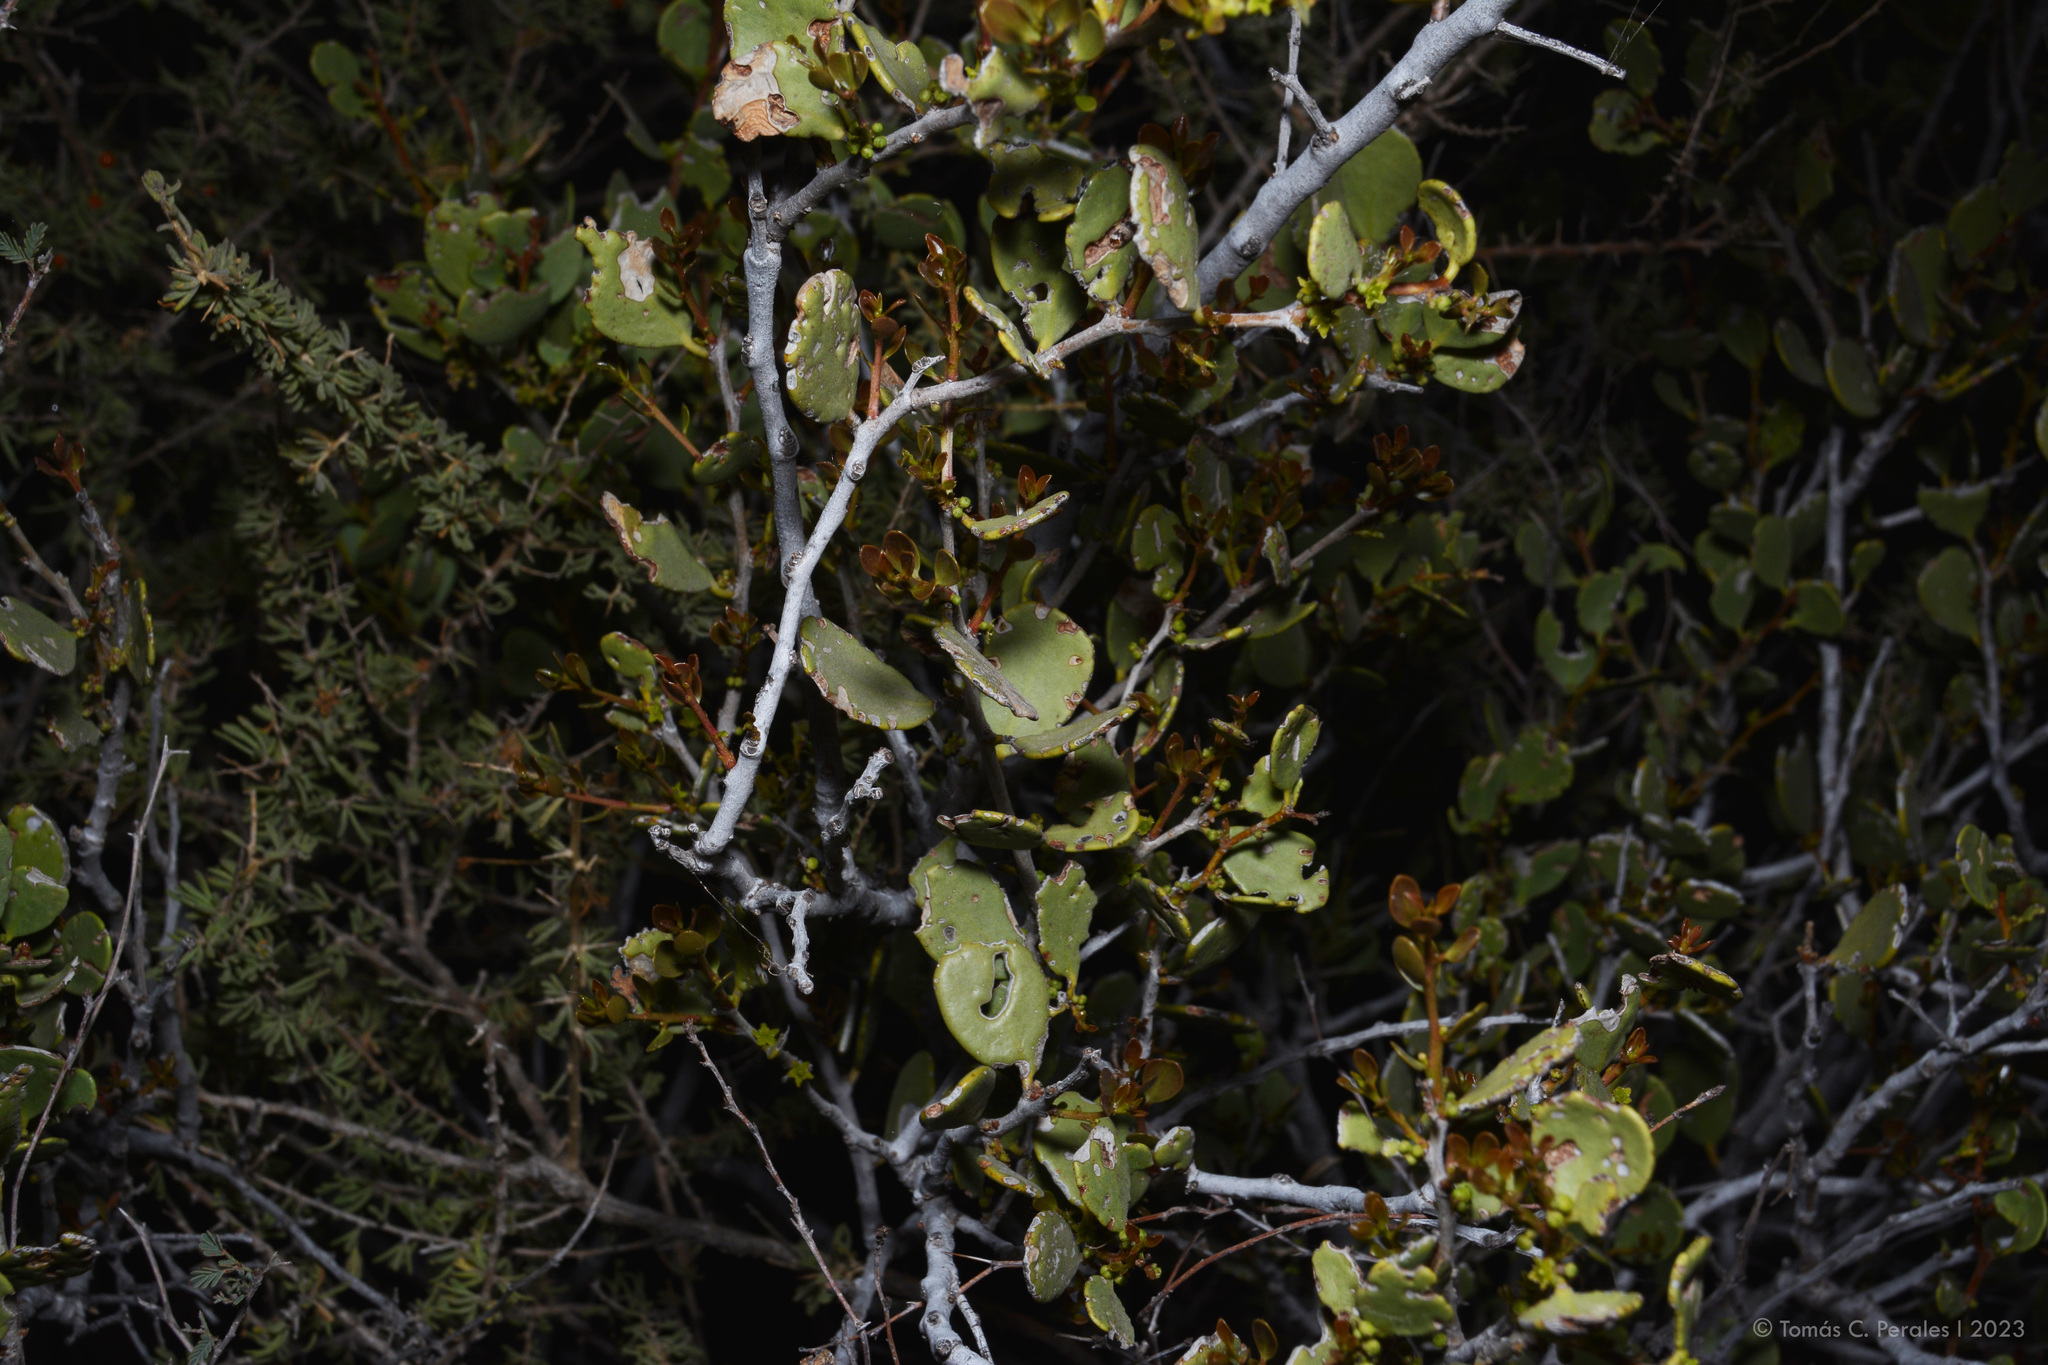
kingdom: Plantae
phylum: Tracheophyta
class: Magnoliopsida
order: Celastrales
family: Celastraceae
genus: Tricerma
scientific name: Tricerma vitis-idaeum
